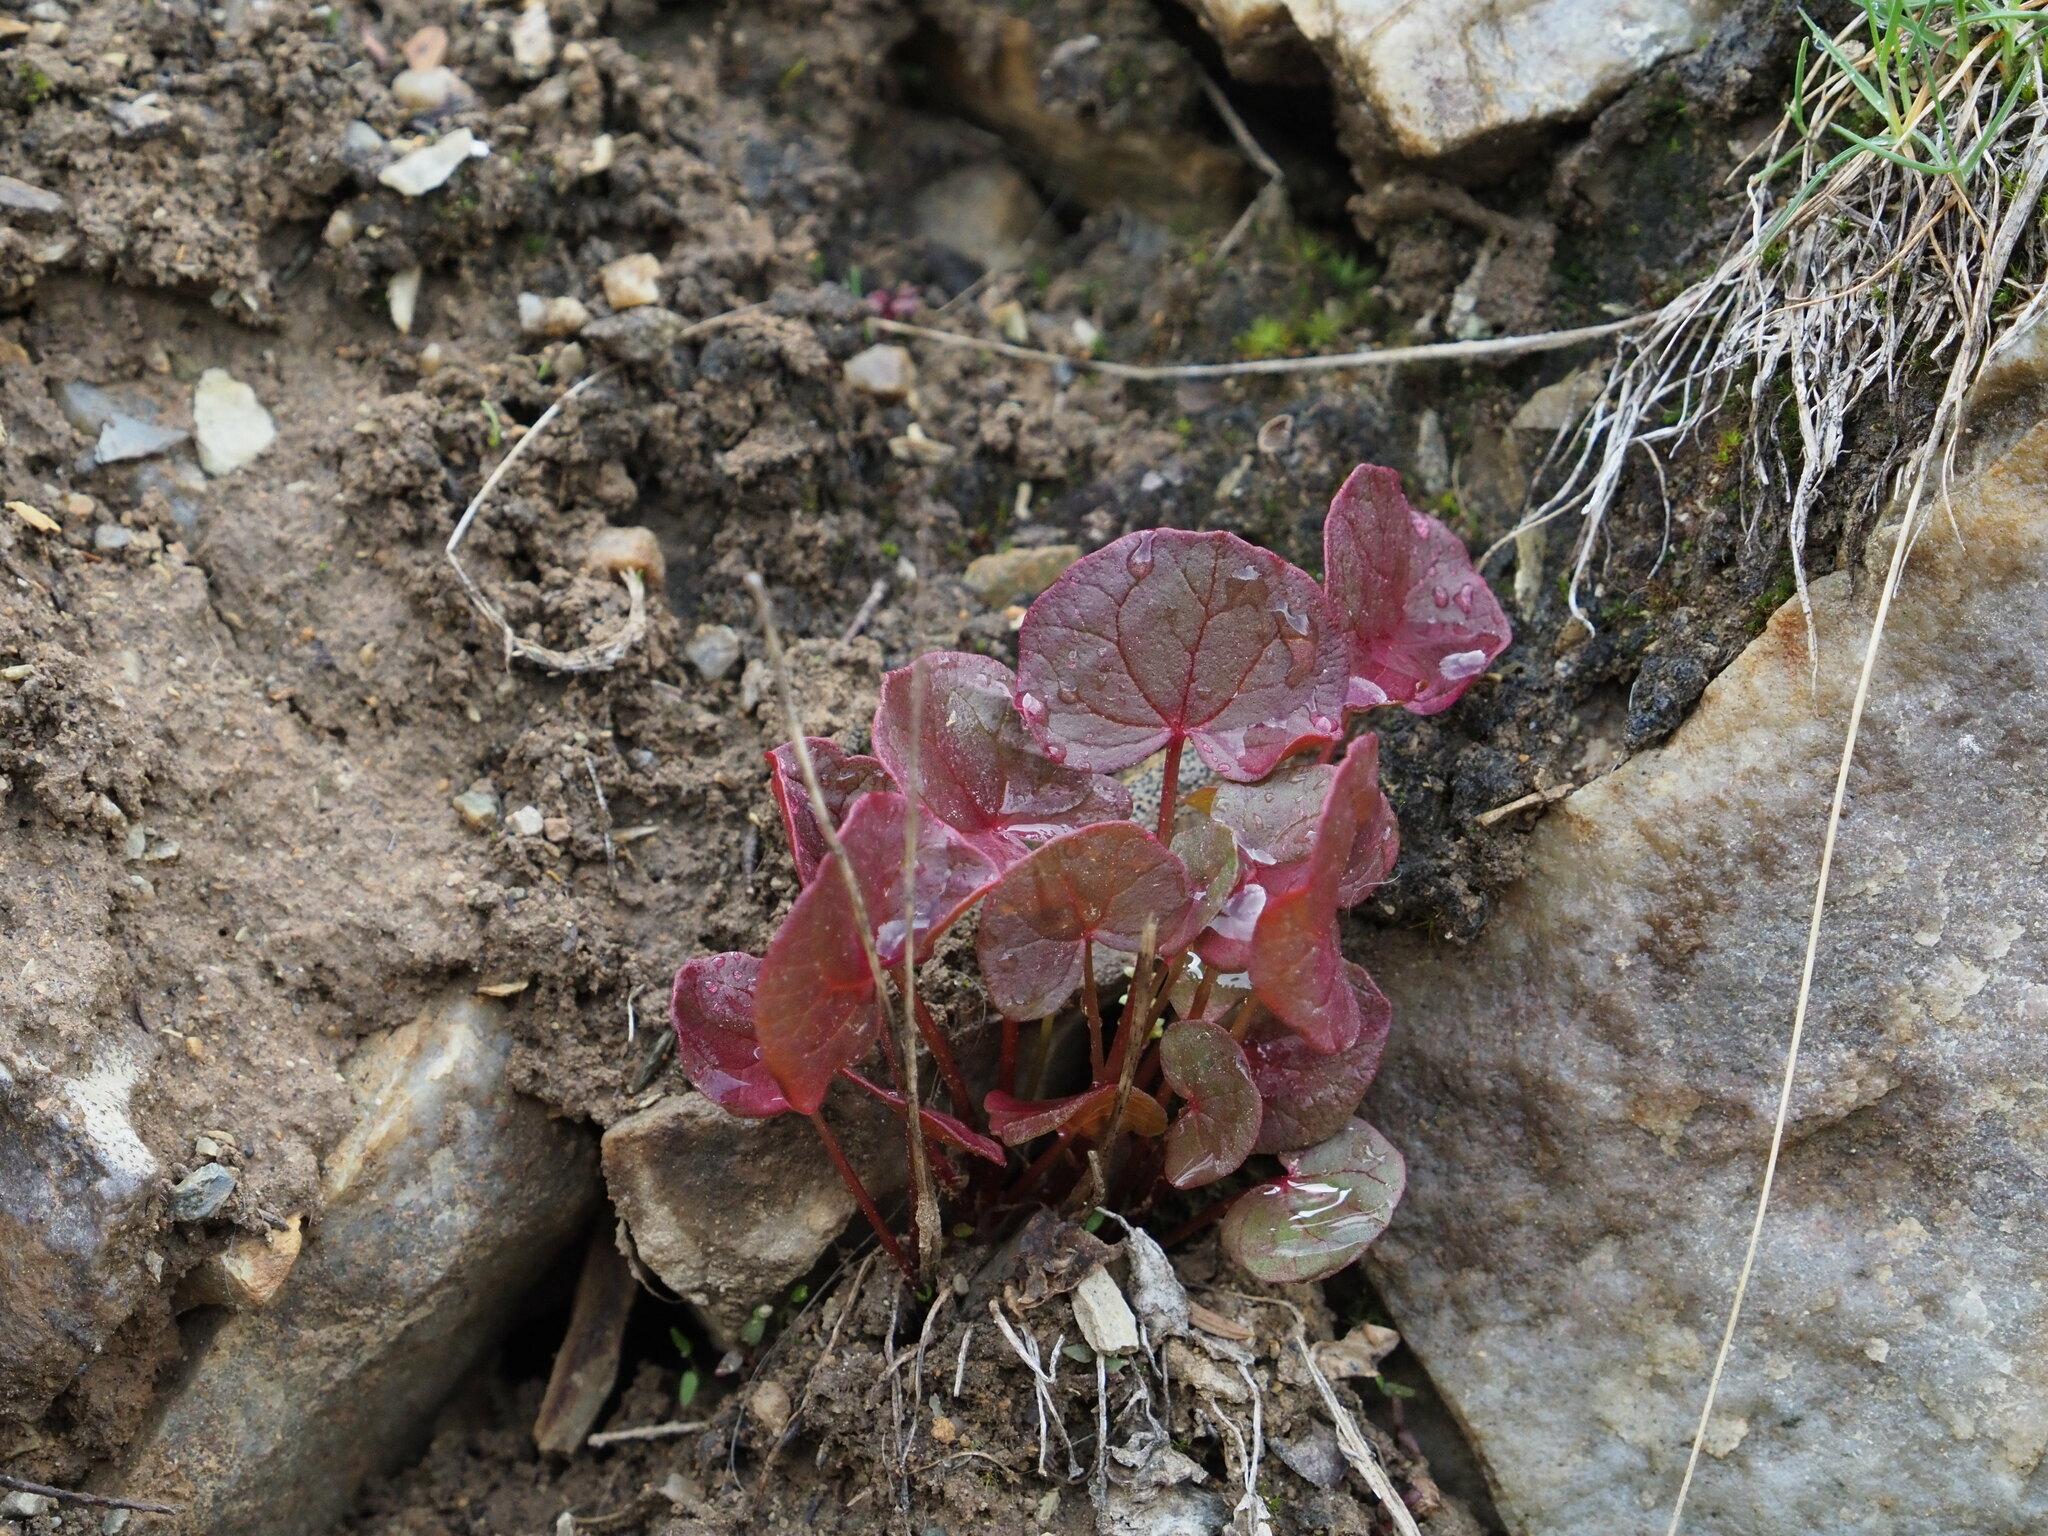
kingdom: Plantae
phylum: Tracheophyta
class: Magnoliopsida
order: Caryophyllales
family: Polygonaceae
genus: Oxyria
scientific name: Oxyria digyna
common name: Alpine mountain-sorrel
